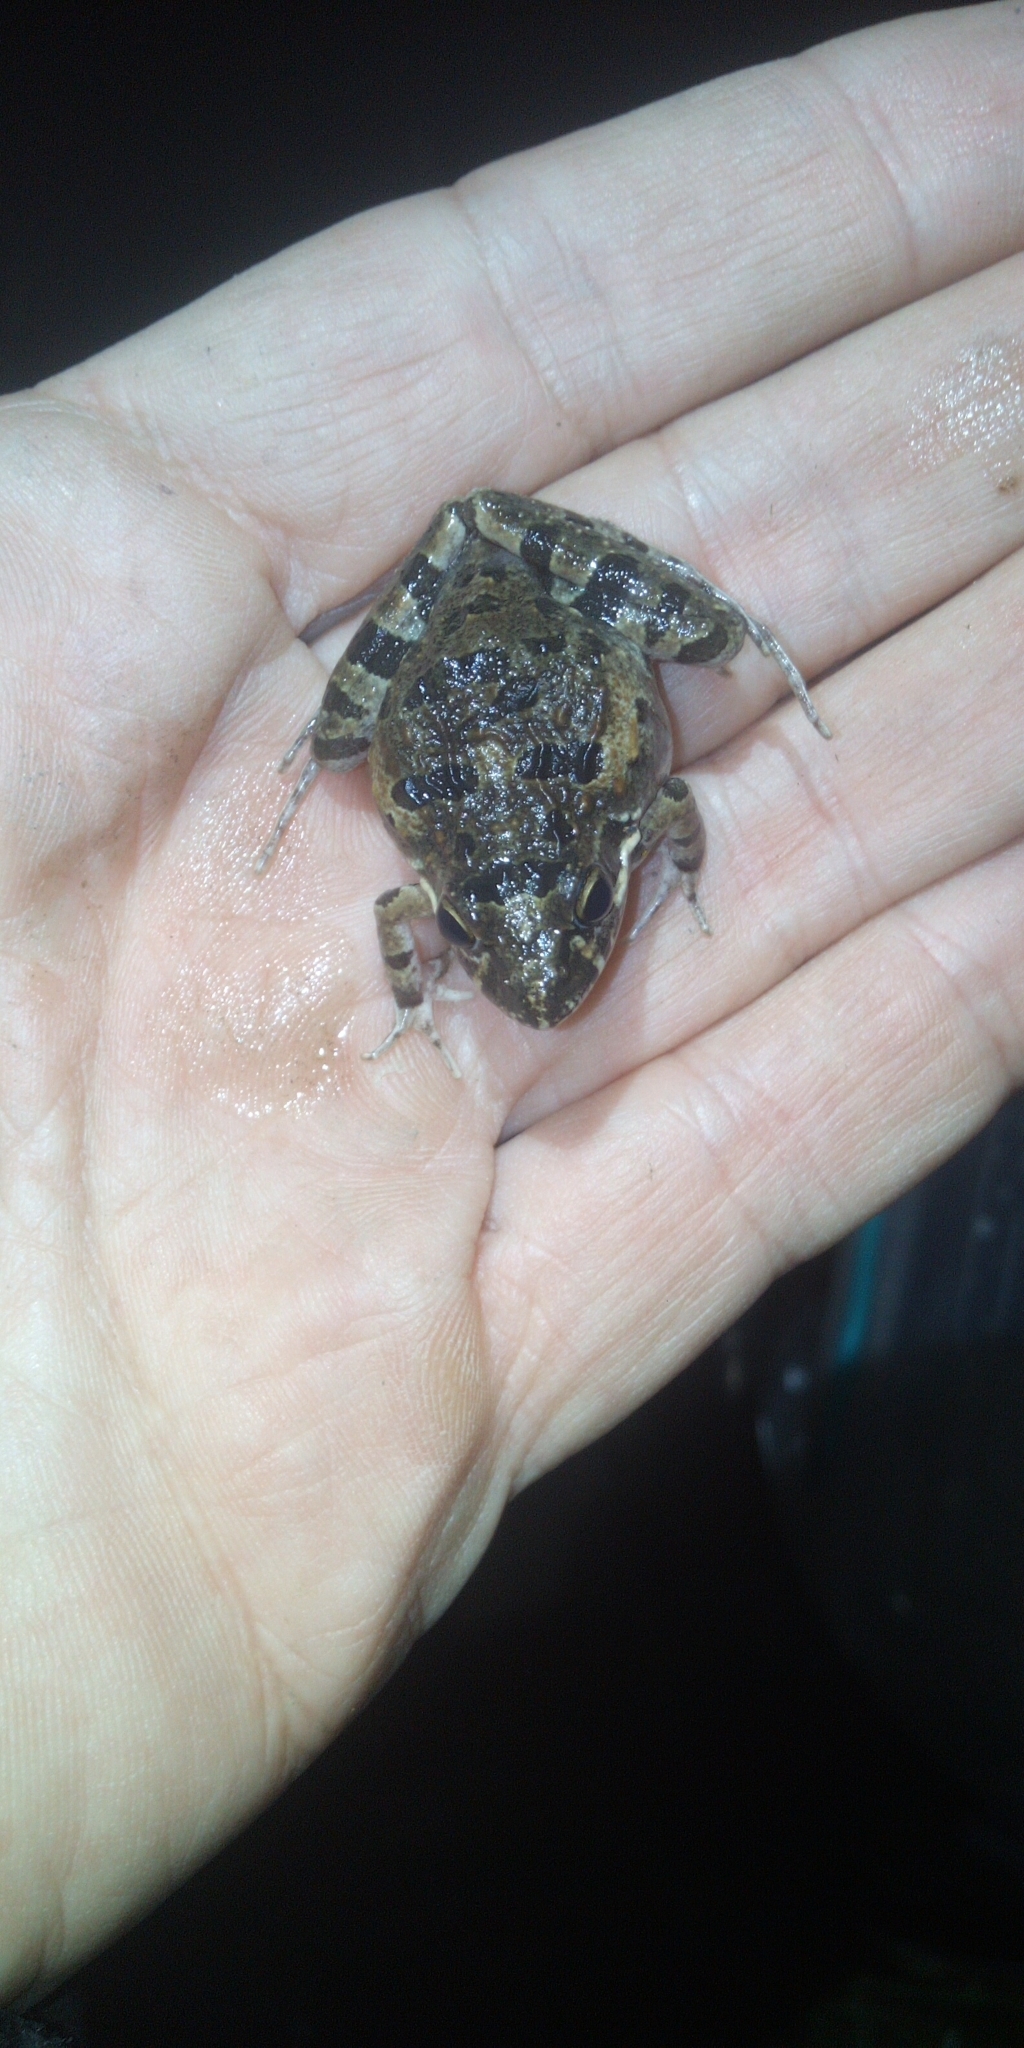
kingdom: Animalia
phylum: Chordata
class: Amphibia
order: Anura
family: Pyxicephalidae
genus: Strongylopus
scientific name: Strongylopus grayii
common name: Gray's stream frog
